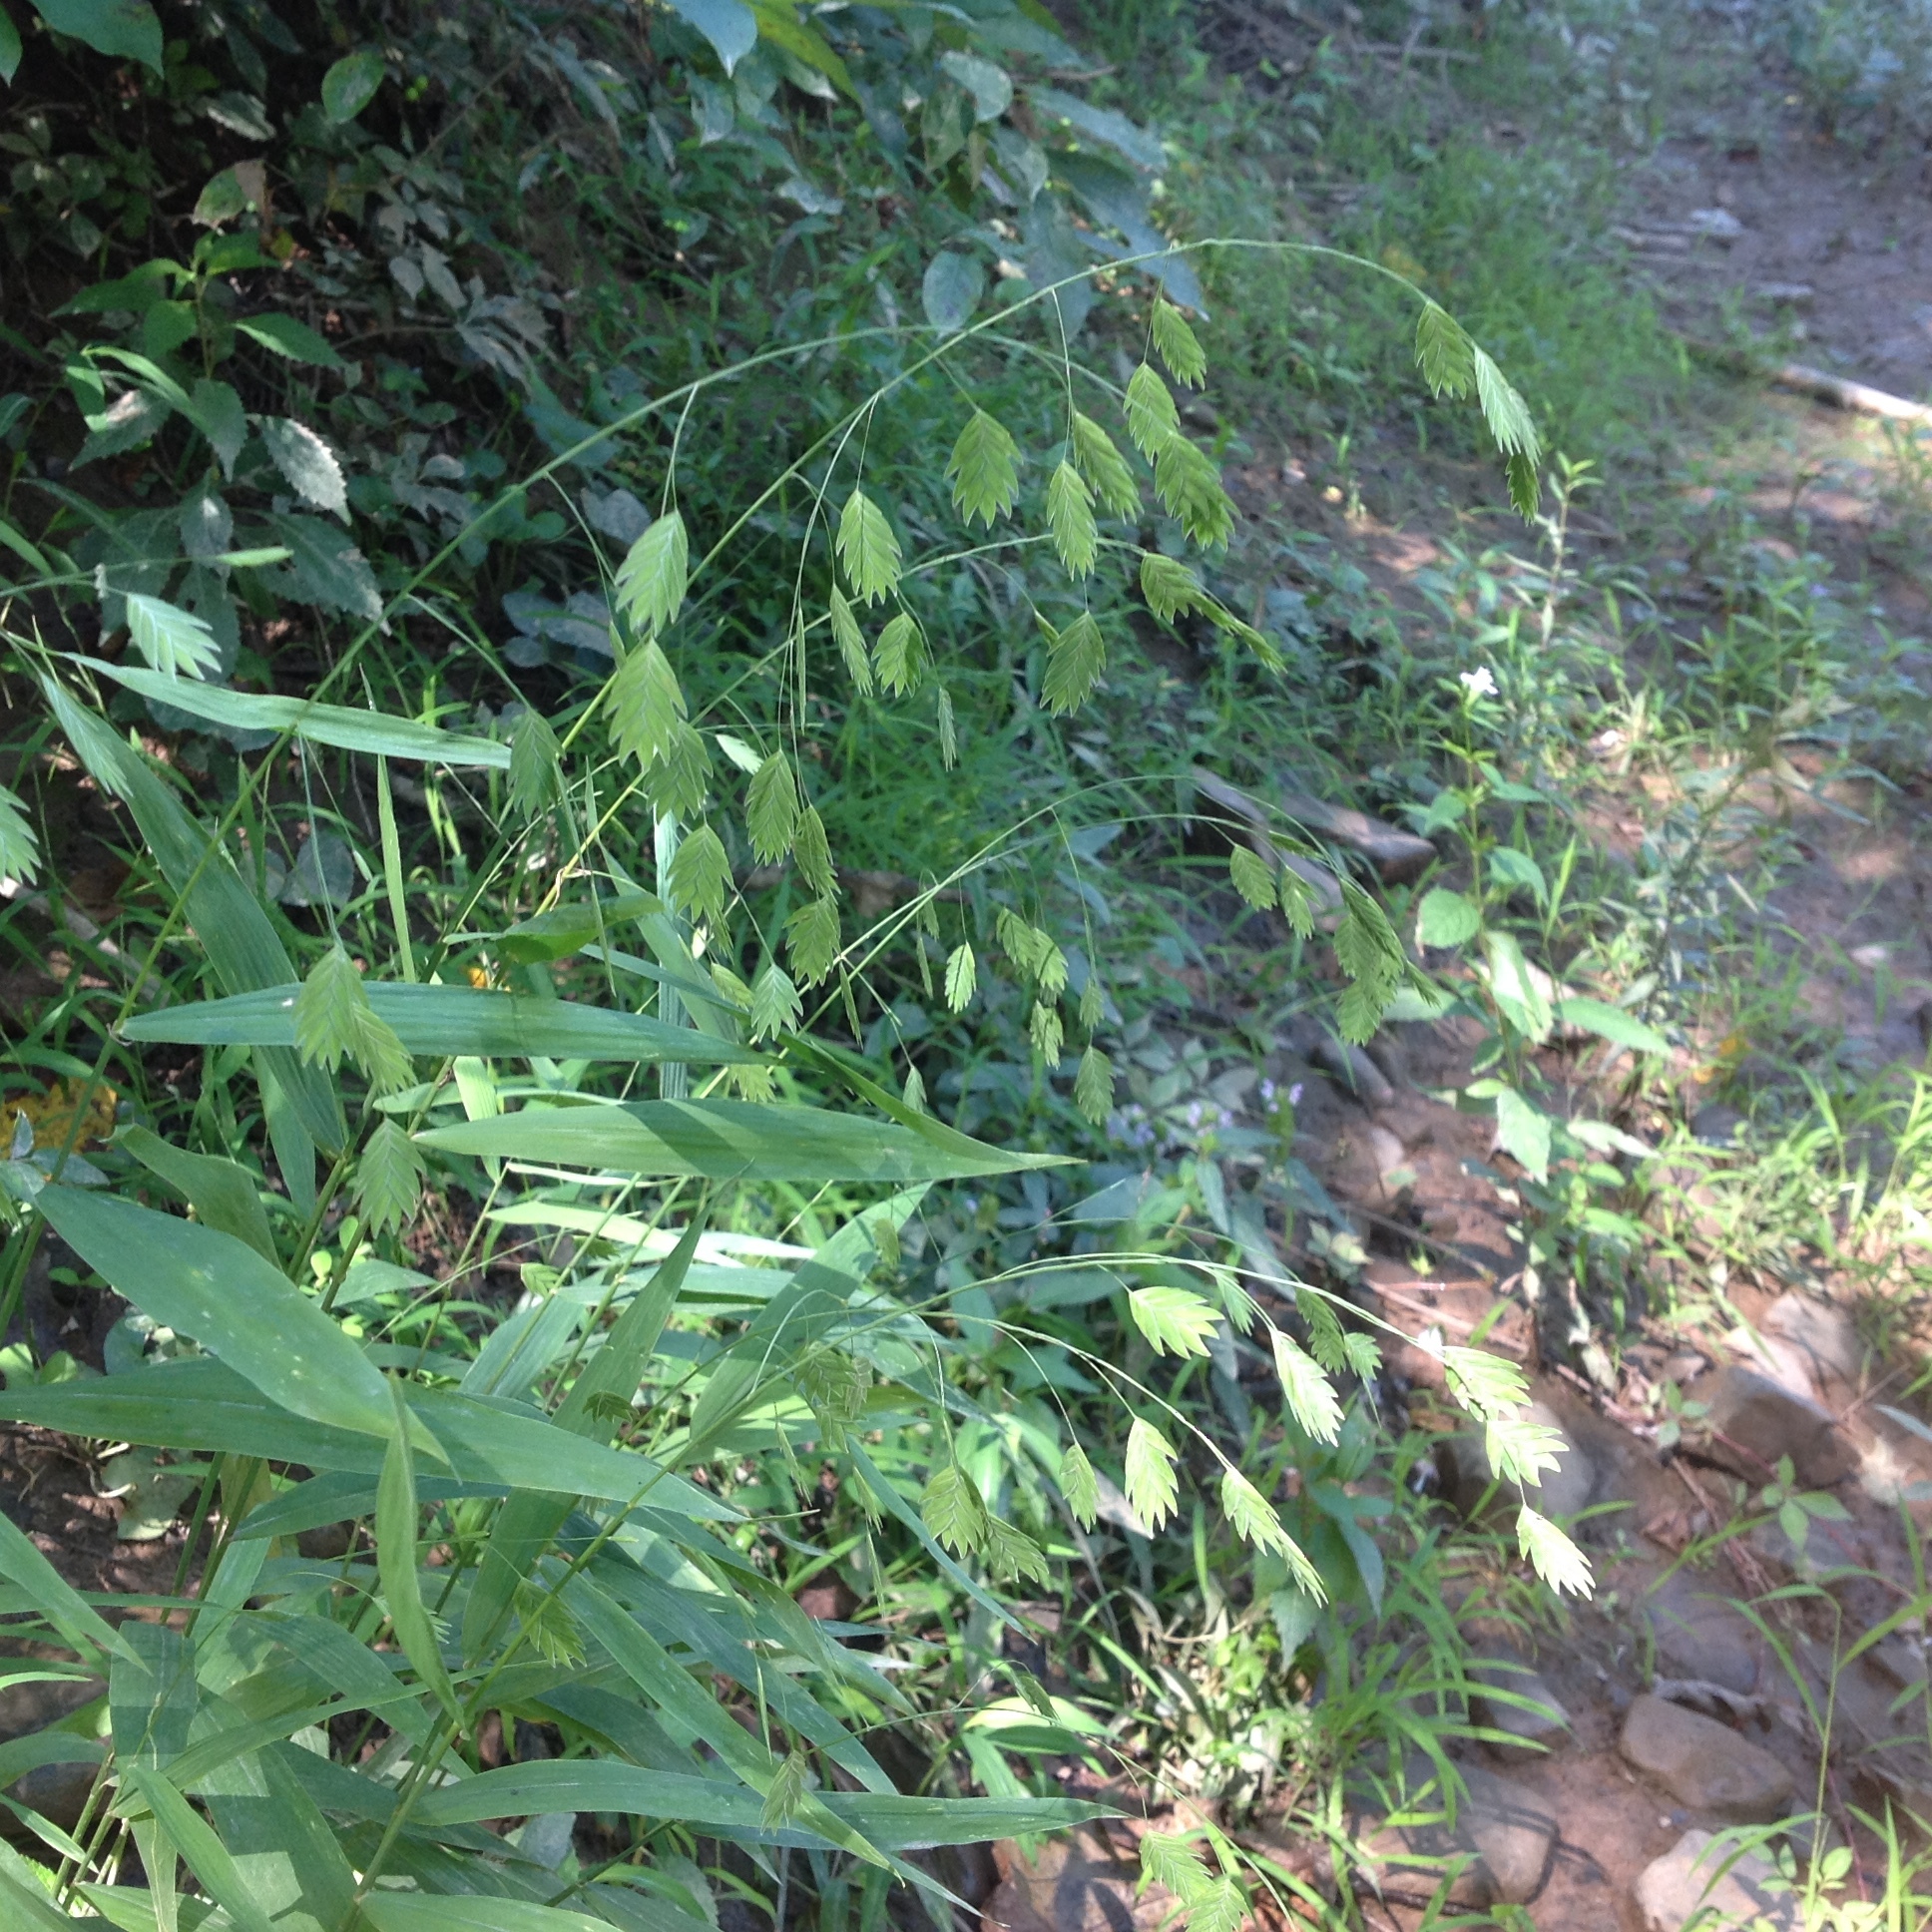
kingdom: Plantae
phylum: Tracheophyta
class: Liliopsida
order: Poales
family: Poaceae
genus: Chasmanthium
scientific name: Chasmanthium latifolium
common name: Broad-leaved chasmanthium
